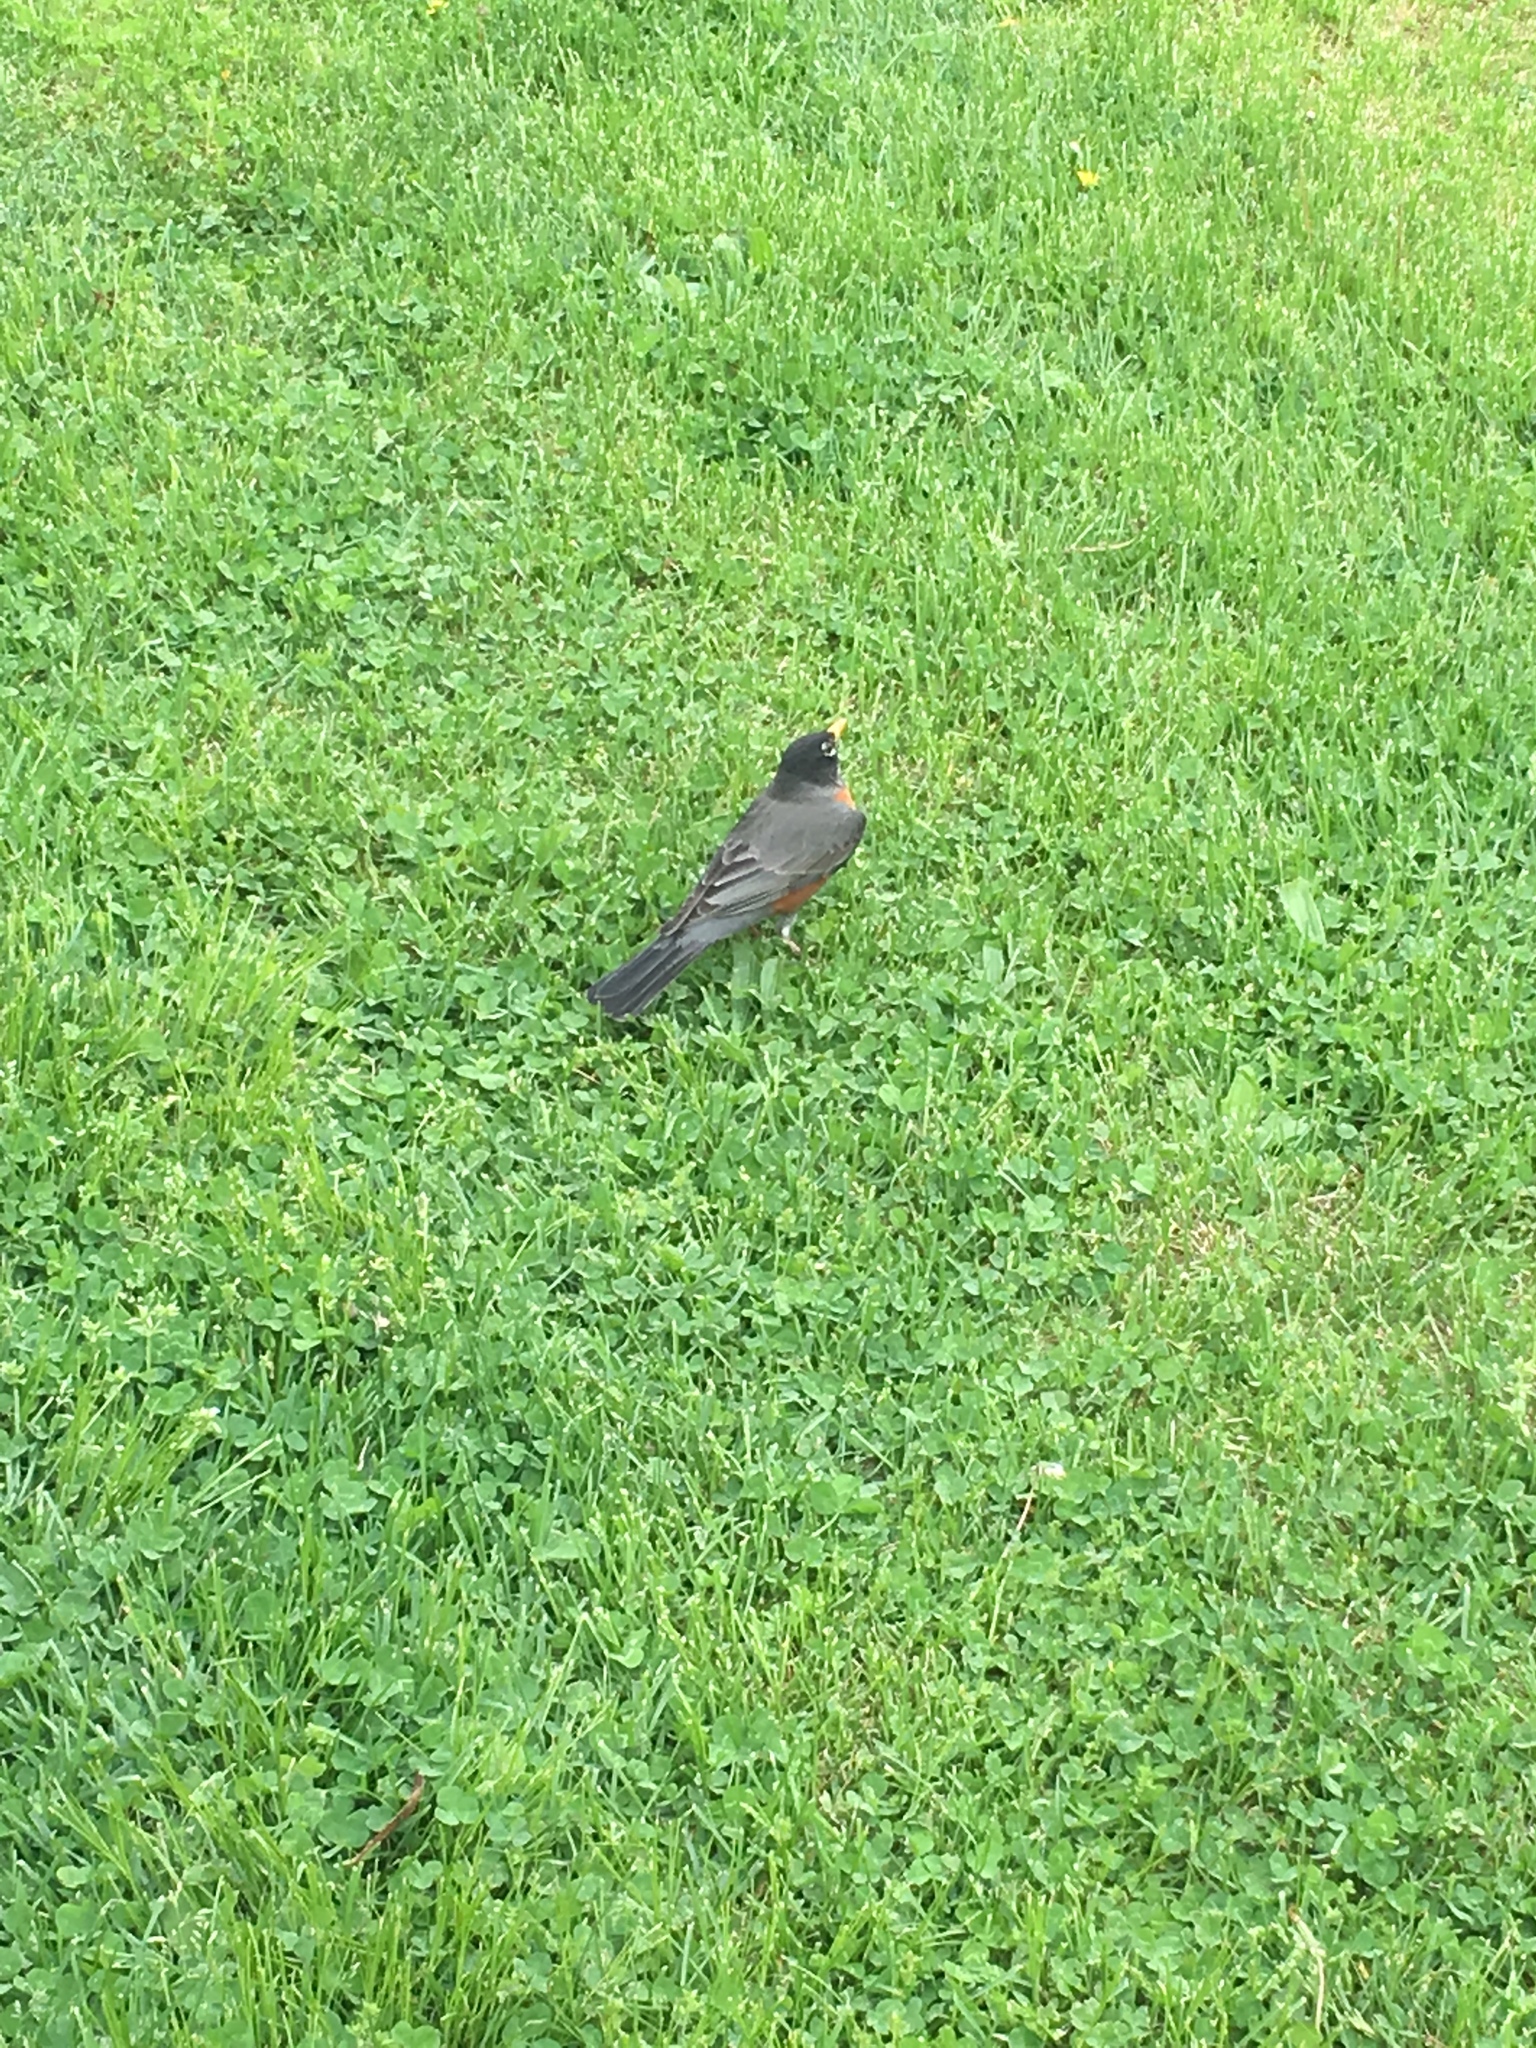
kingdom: Animalia
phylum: Chordata
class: Aves
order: Passeriformes
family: Turdidae
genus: Turdus
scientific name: Turdus migratorius
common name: American robin
